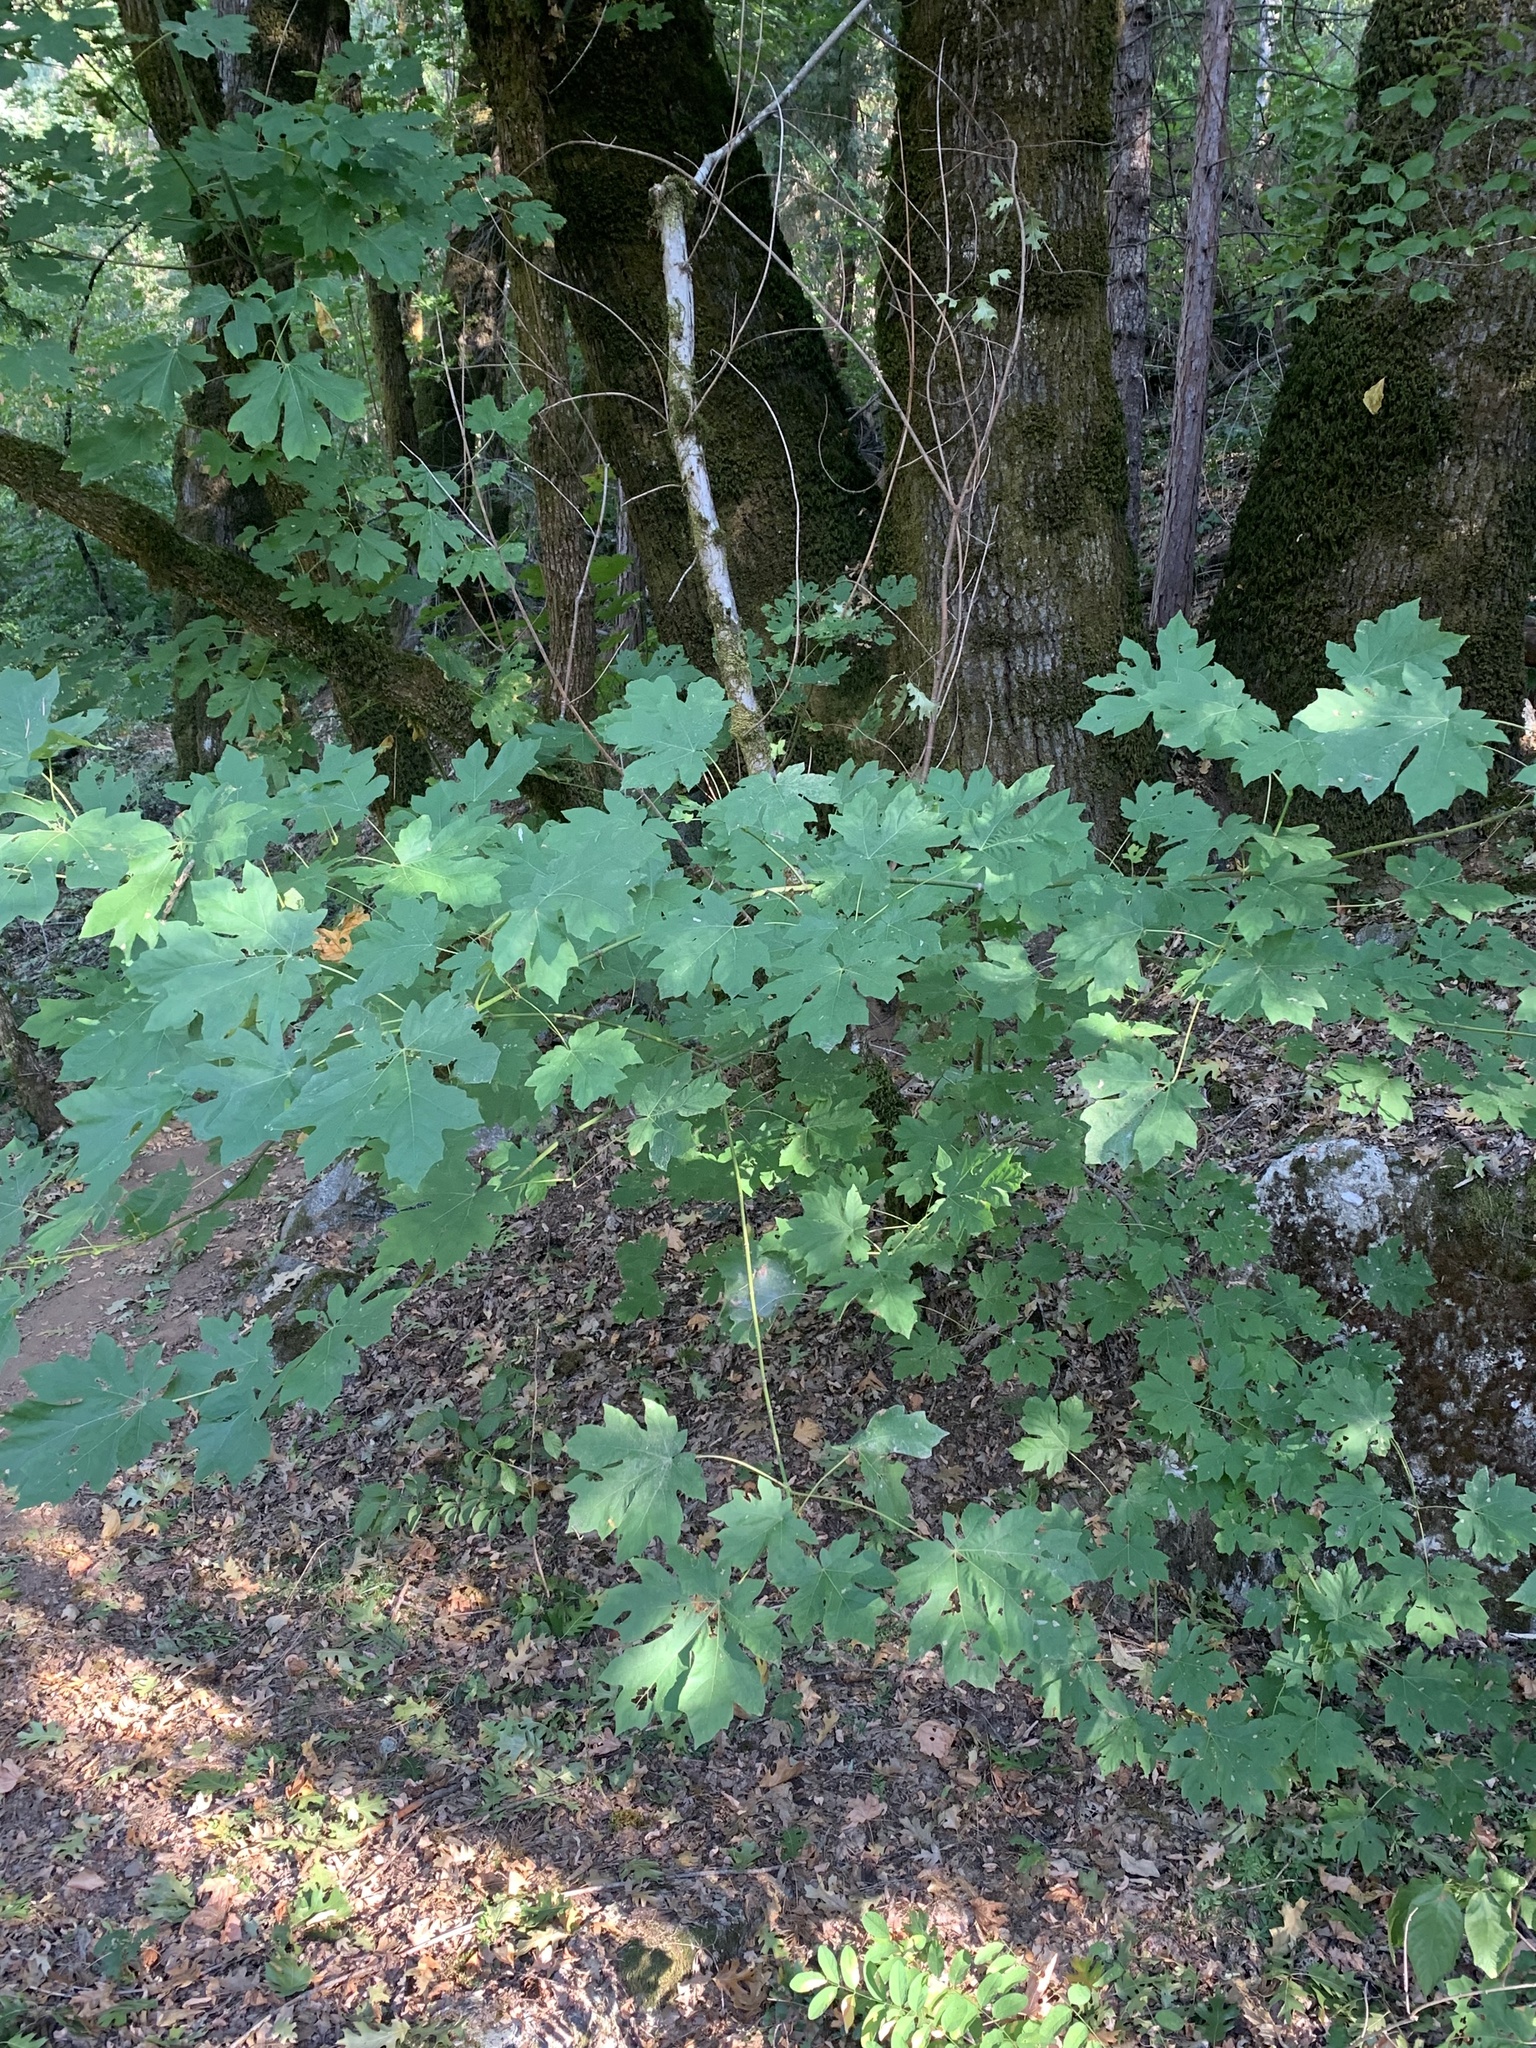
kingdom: Plantae
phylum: Tracheophyta
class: Magnoliopsida
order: Sapindales
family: Sapindaceae
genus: Acer
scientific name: Acer macrophyllum
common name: Oregon maple
